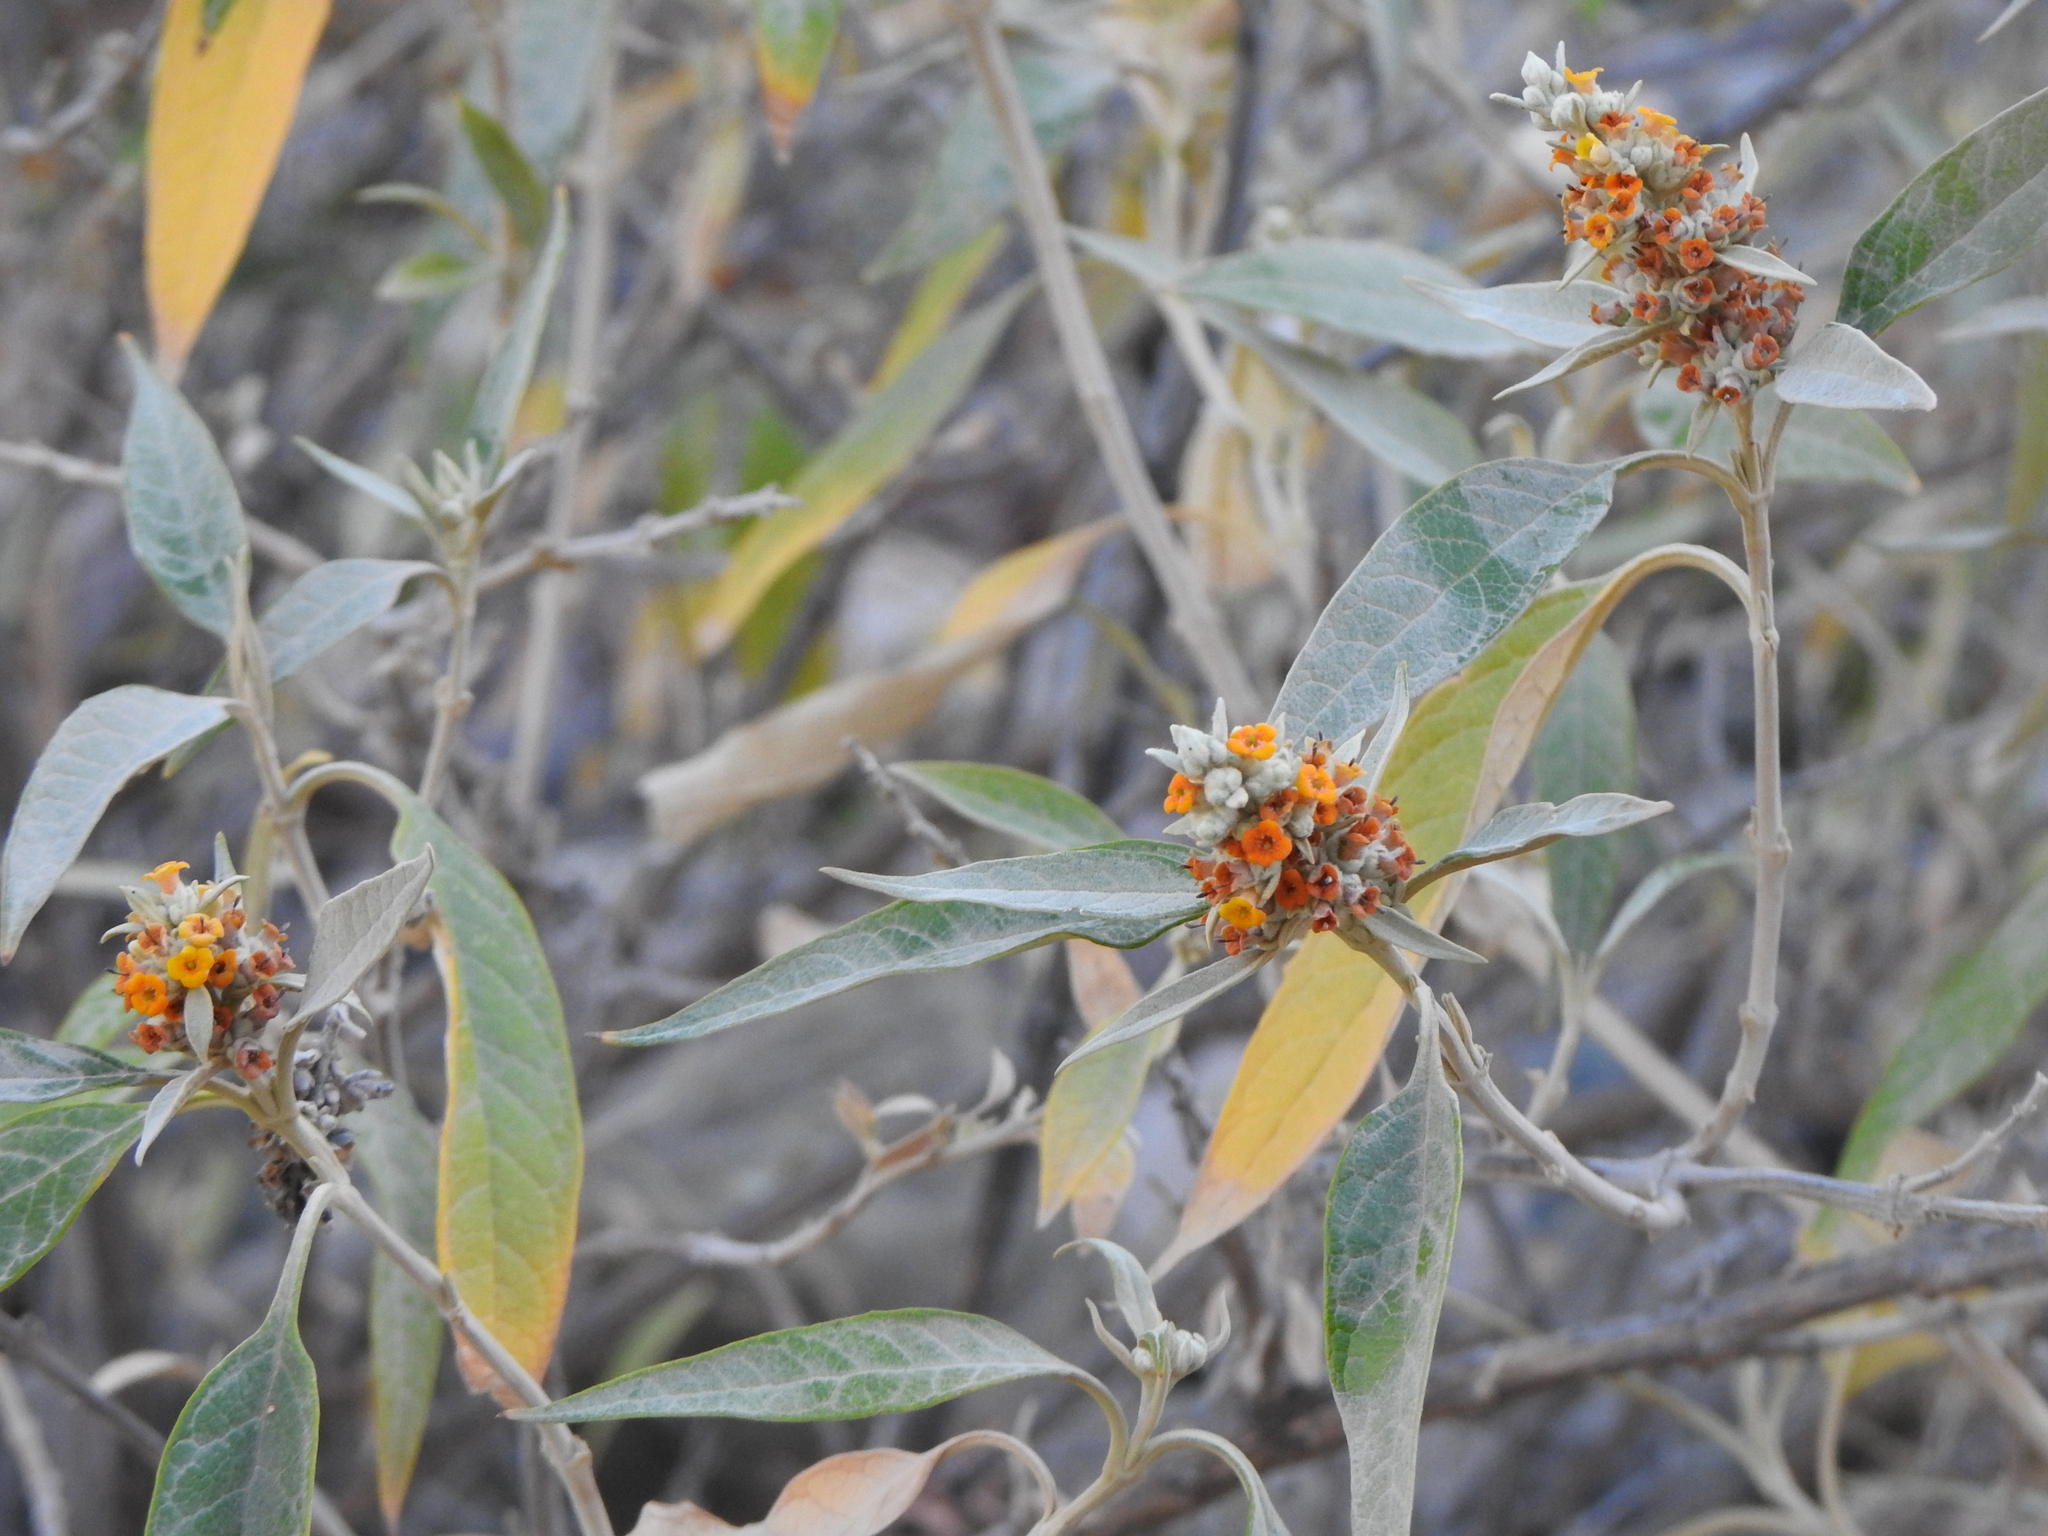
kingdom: Plantae
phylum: Tracheophyta
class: Magnoliopsida
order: Lamiales
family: Scrophulariaceae
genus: Buddleja
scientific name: Buddleja tucumanensis
